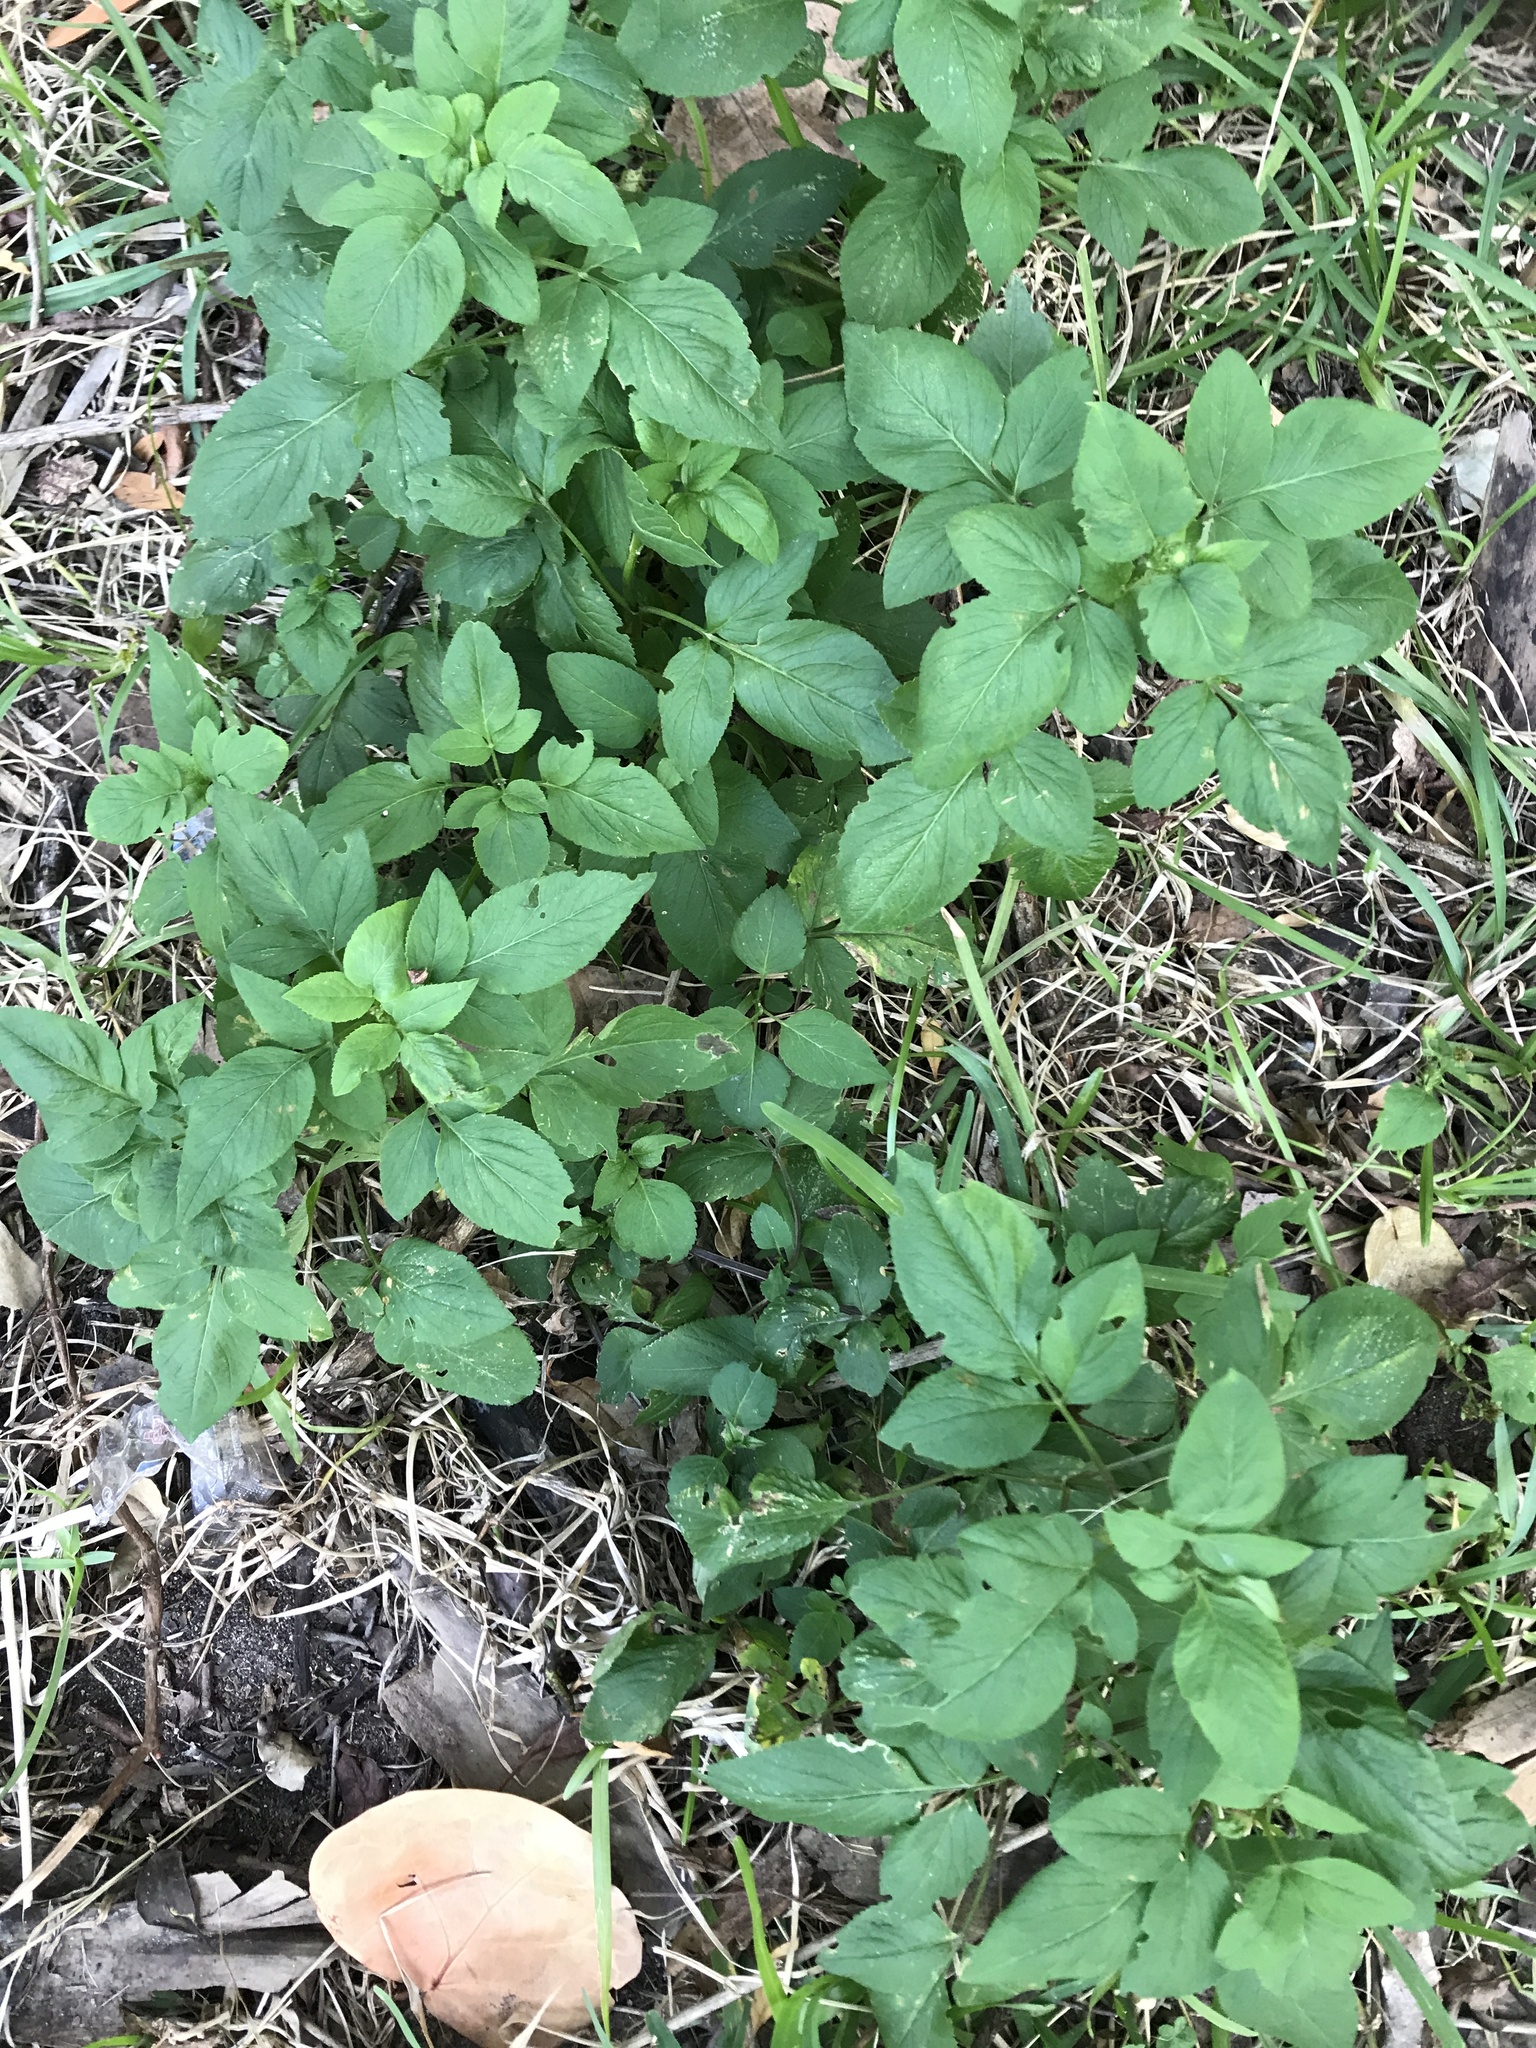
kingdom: Plantae
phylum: Tracheophyta
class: Magnoliopsida
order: Asterales
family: Asteraceae
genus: Bidens
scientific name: Bidens alba
